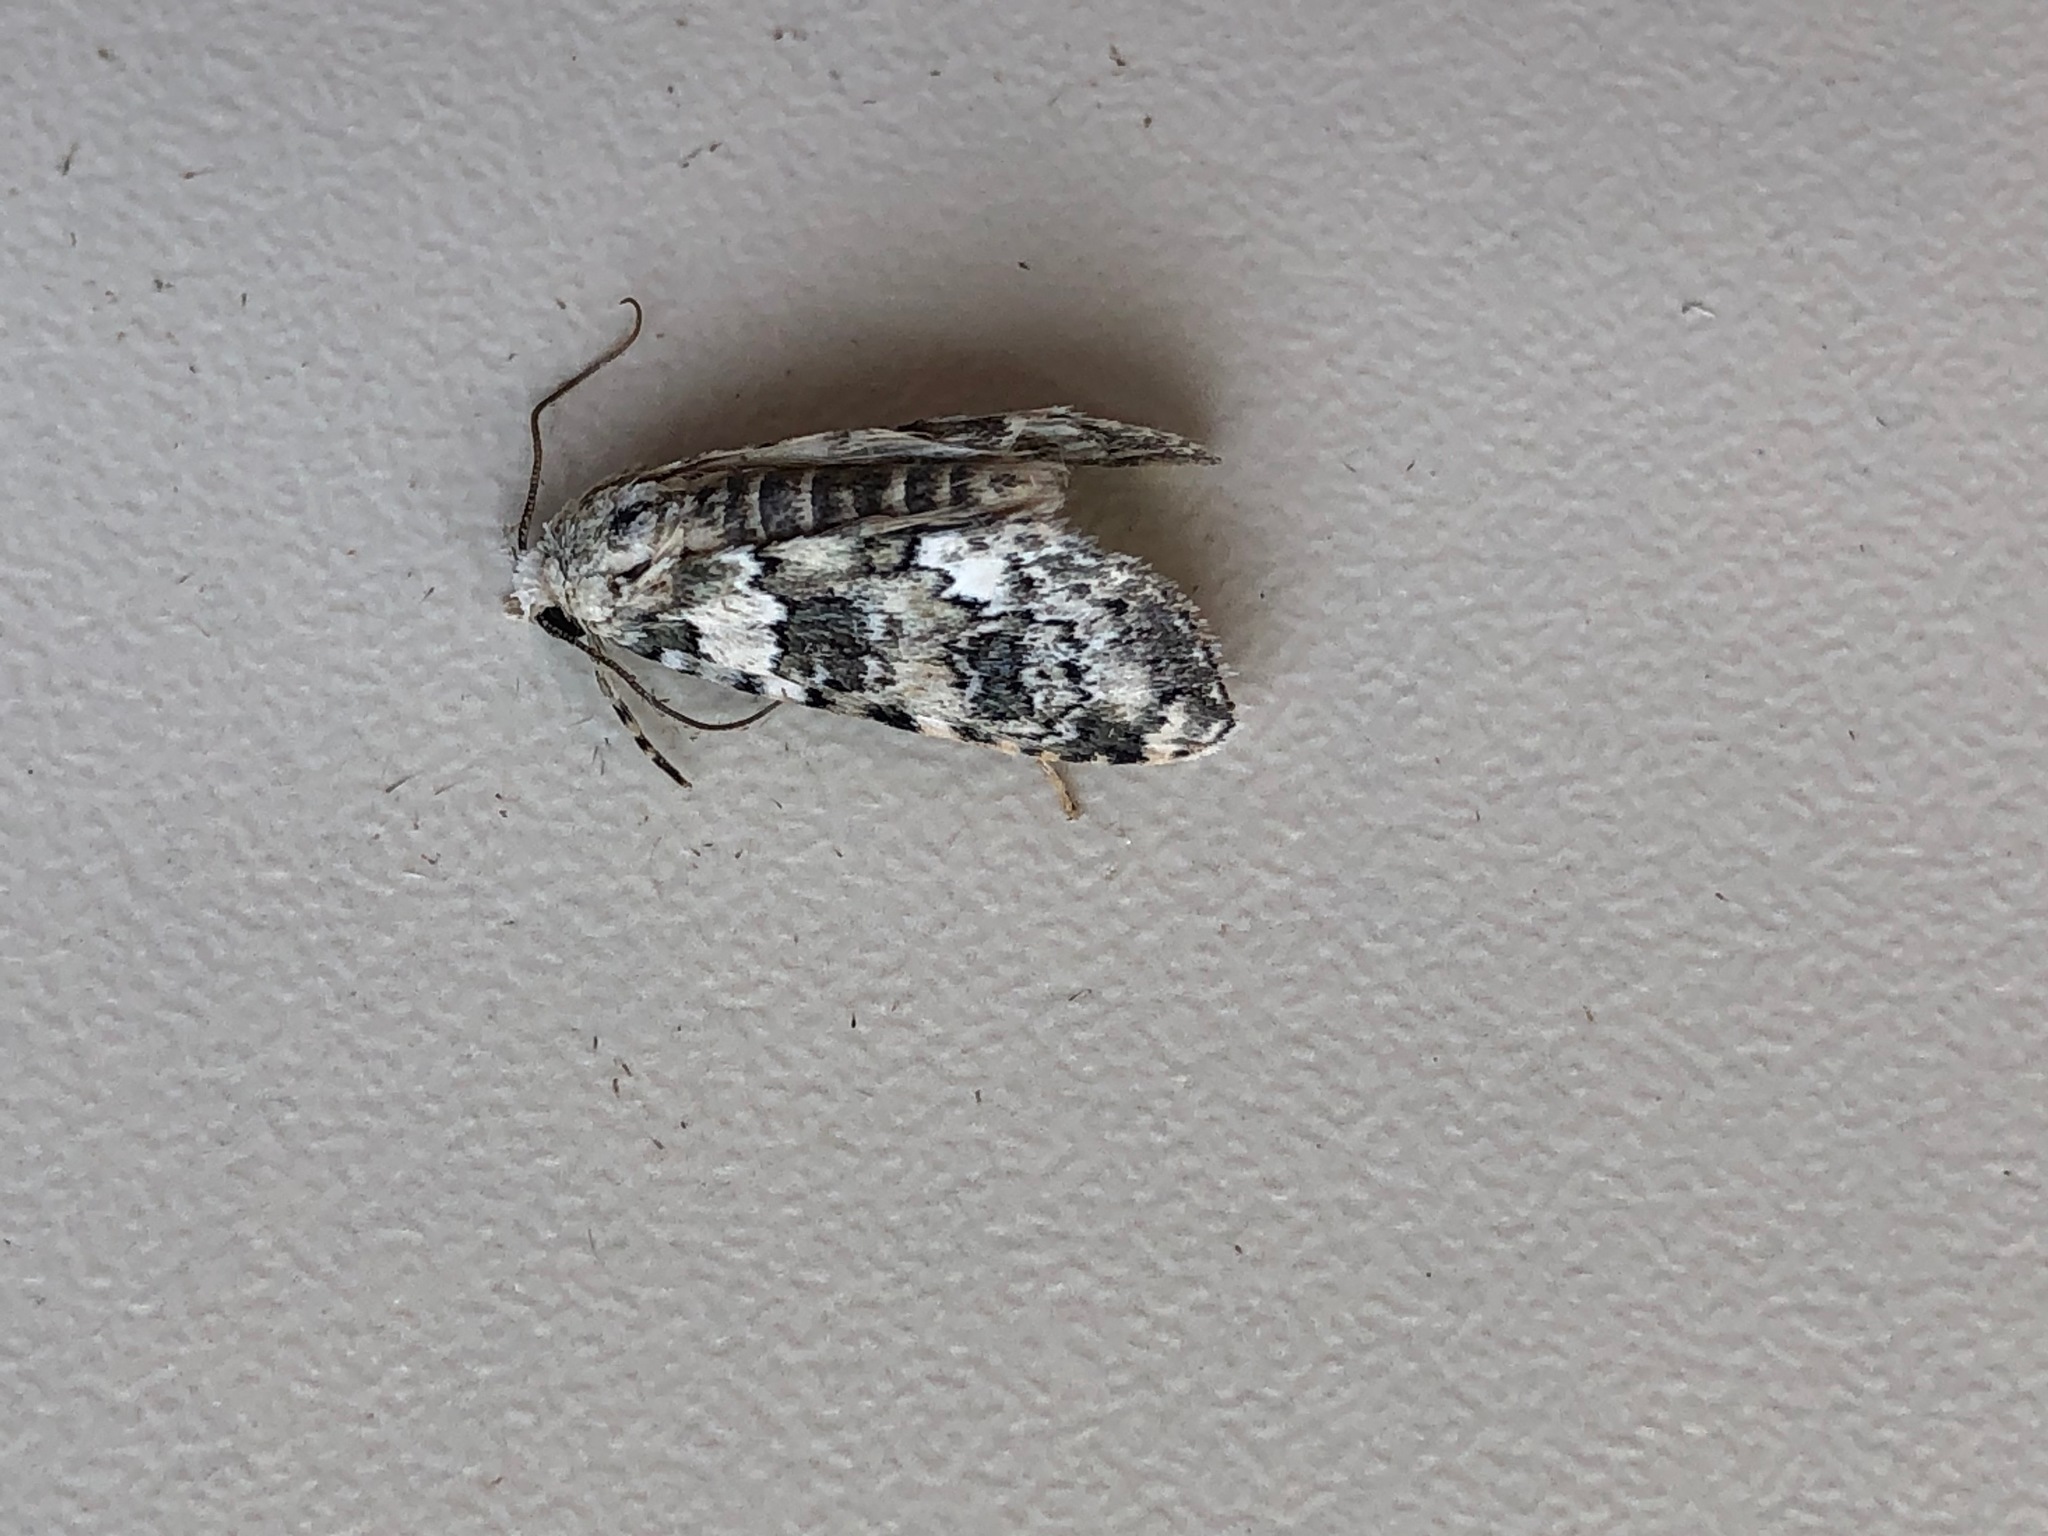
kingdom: Animalia
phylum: Arthropoda
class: Insecta
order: Lepidoptera
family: Noctuidae
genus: Bryophila
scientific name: Bryophila domestica
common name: Marbled beauty
